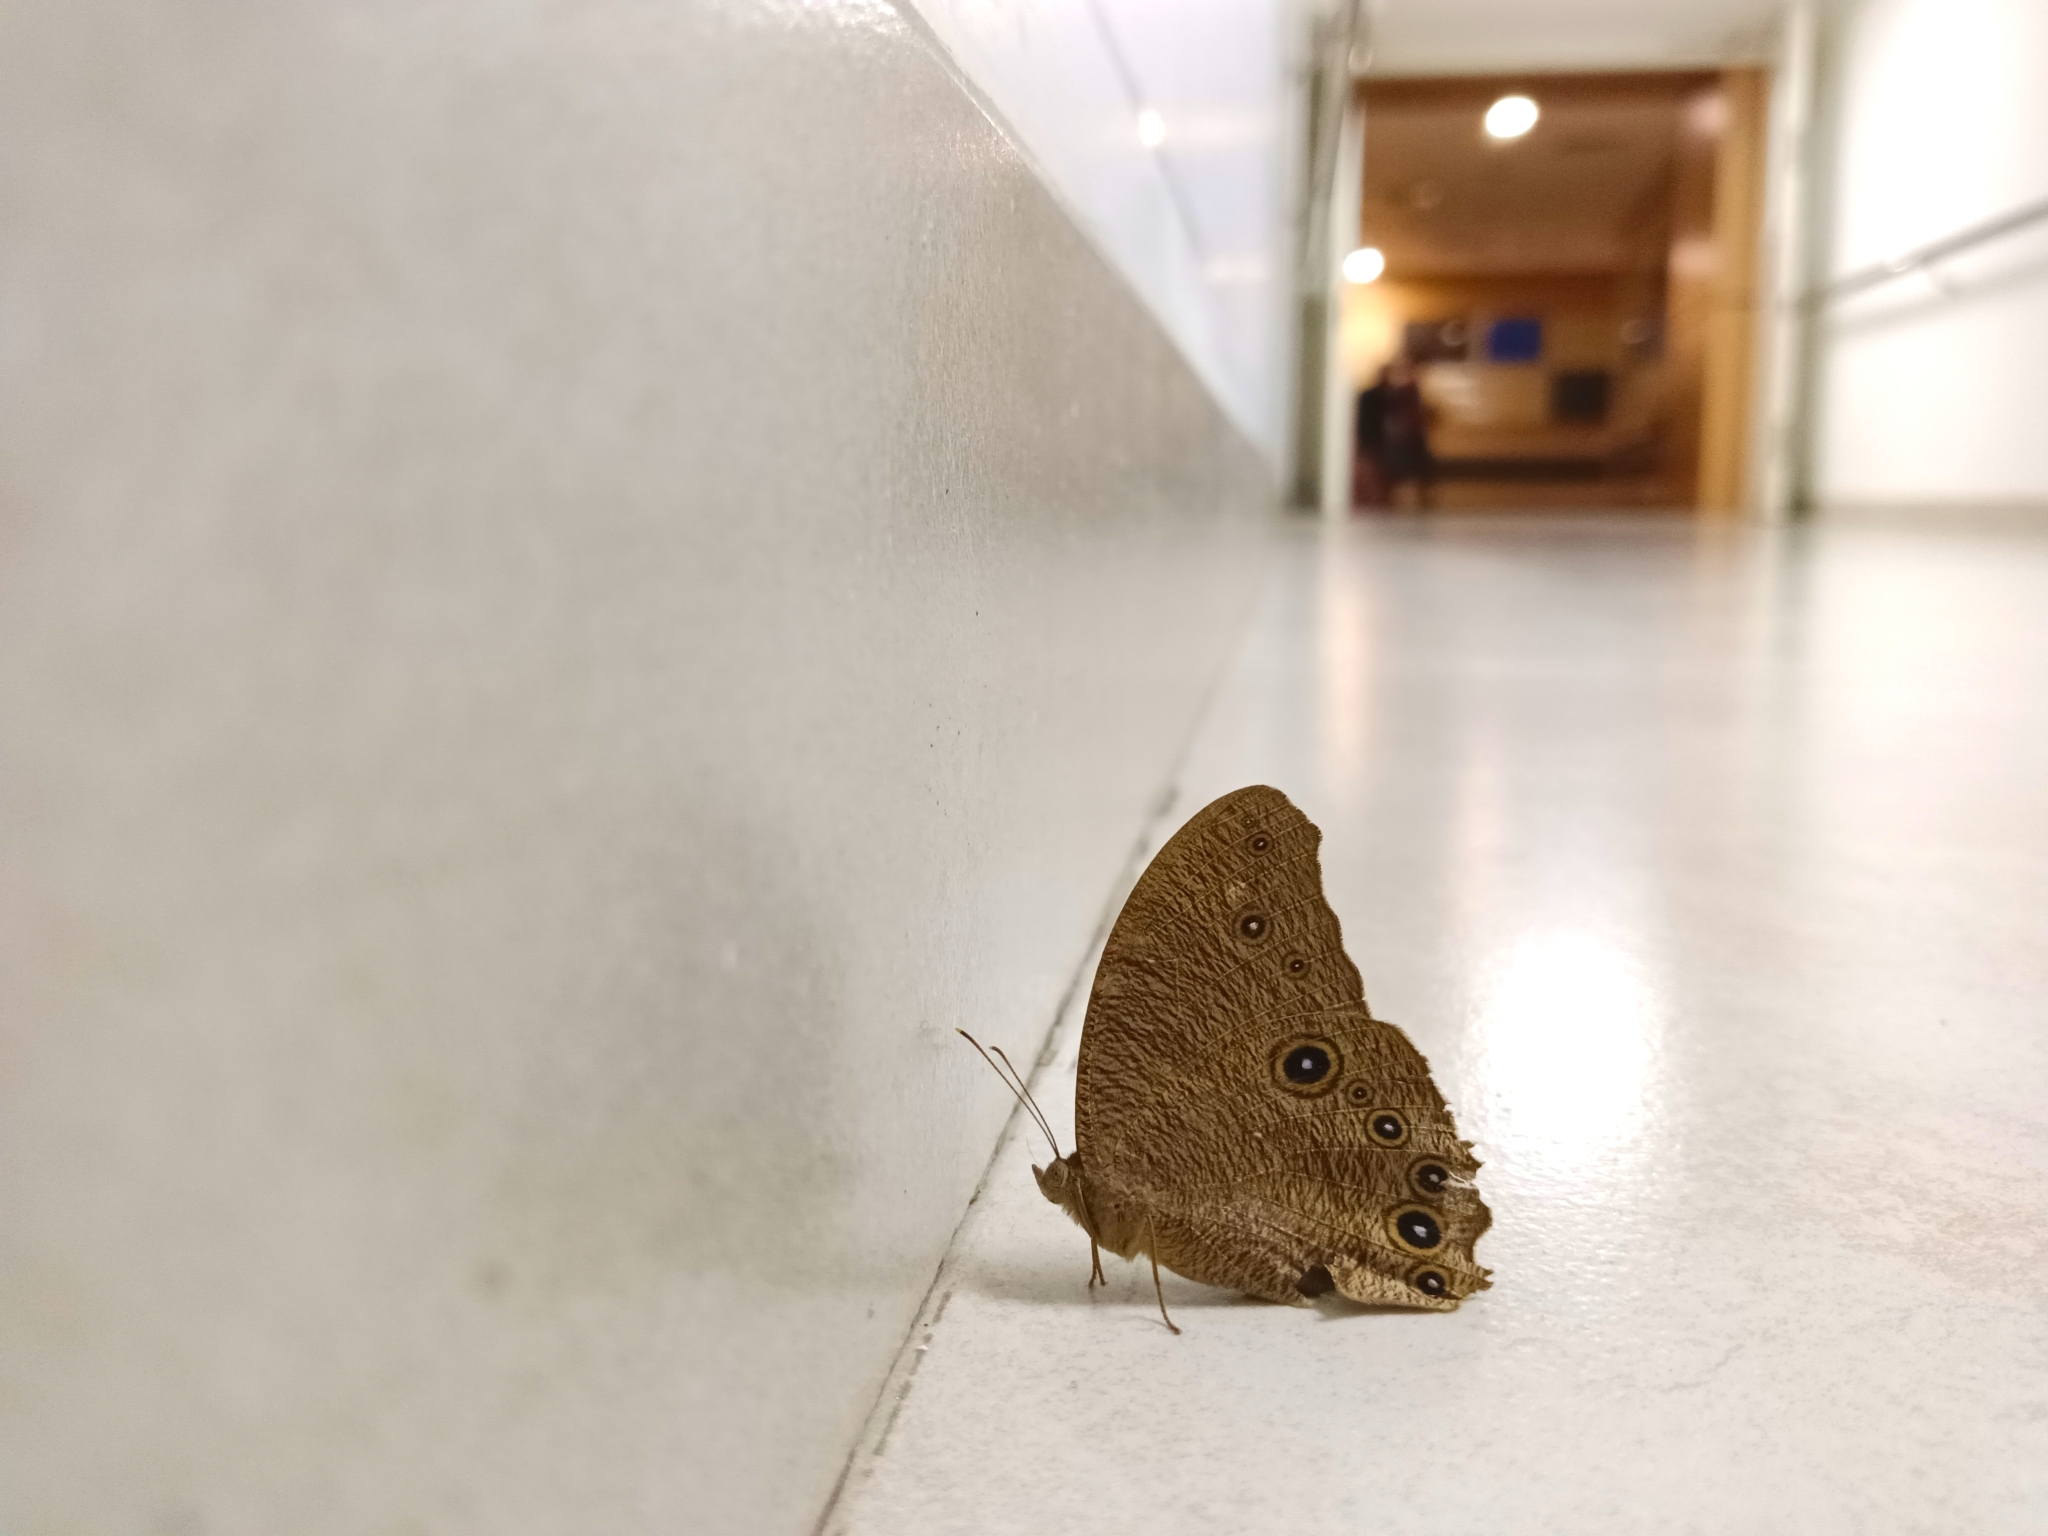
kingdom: Animalia
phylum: Arthropoda
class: Insecta
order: Lepidoptera
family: Nymphalidae
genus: Melanitis
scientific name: Melanitis leda
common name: Twilight brown
